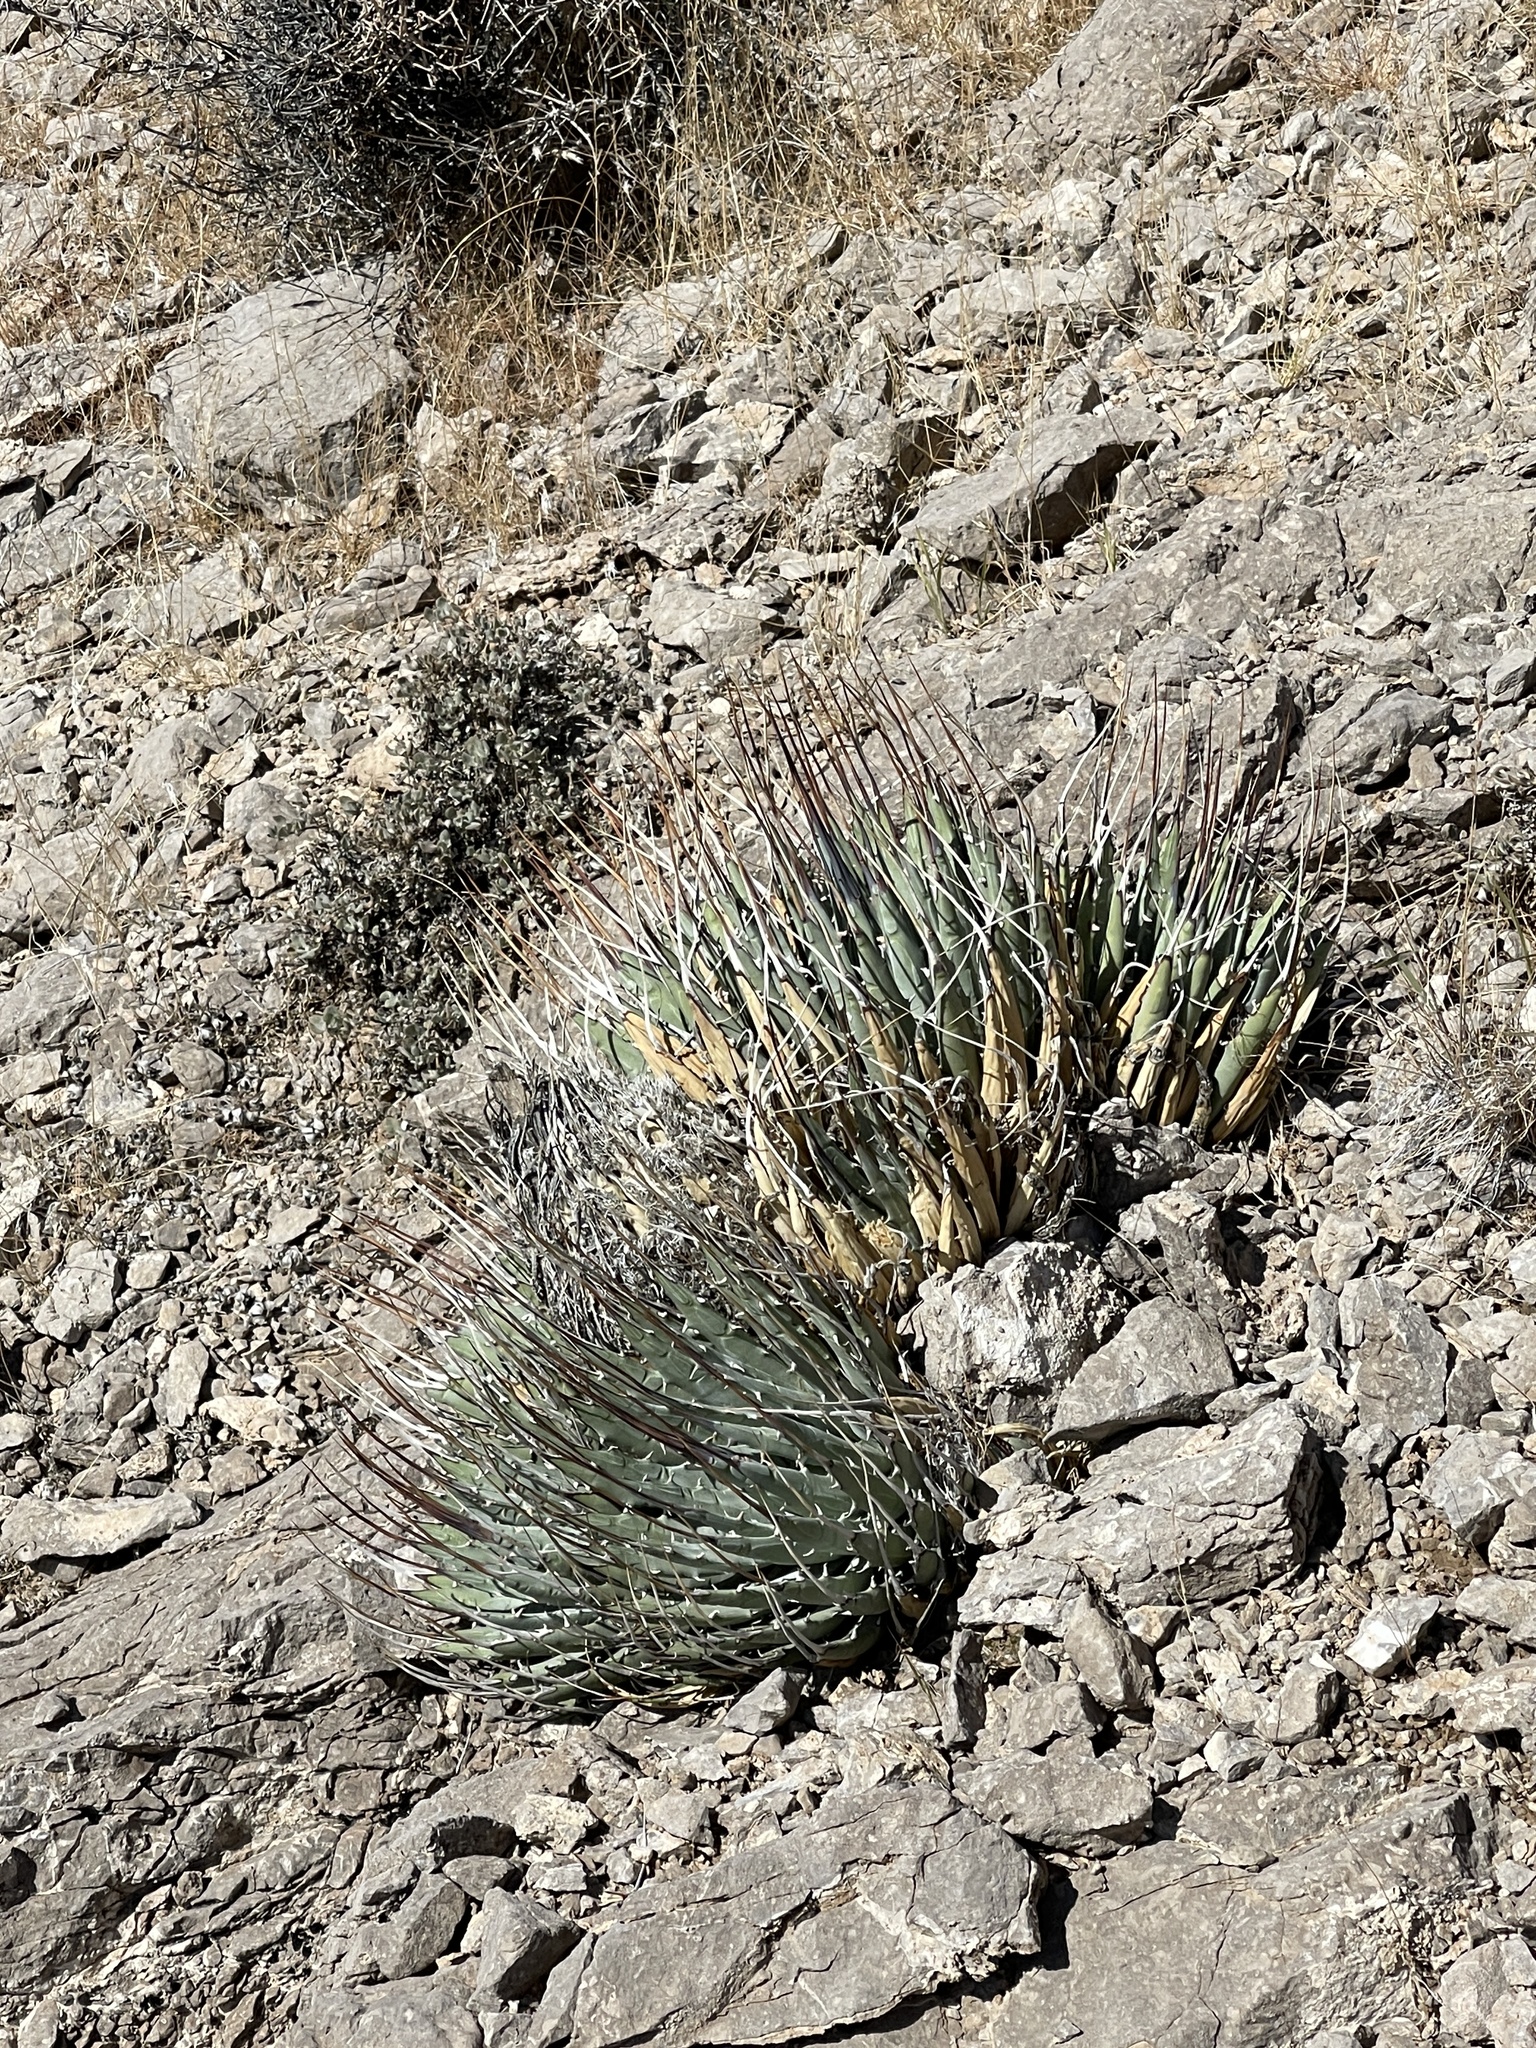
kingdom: Plantae
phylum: Tracheophyta
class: Liliopsida
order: Asparagales
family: Asparagaceae
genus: Agave
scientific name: Agave utahensis
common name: Utah agave
